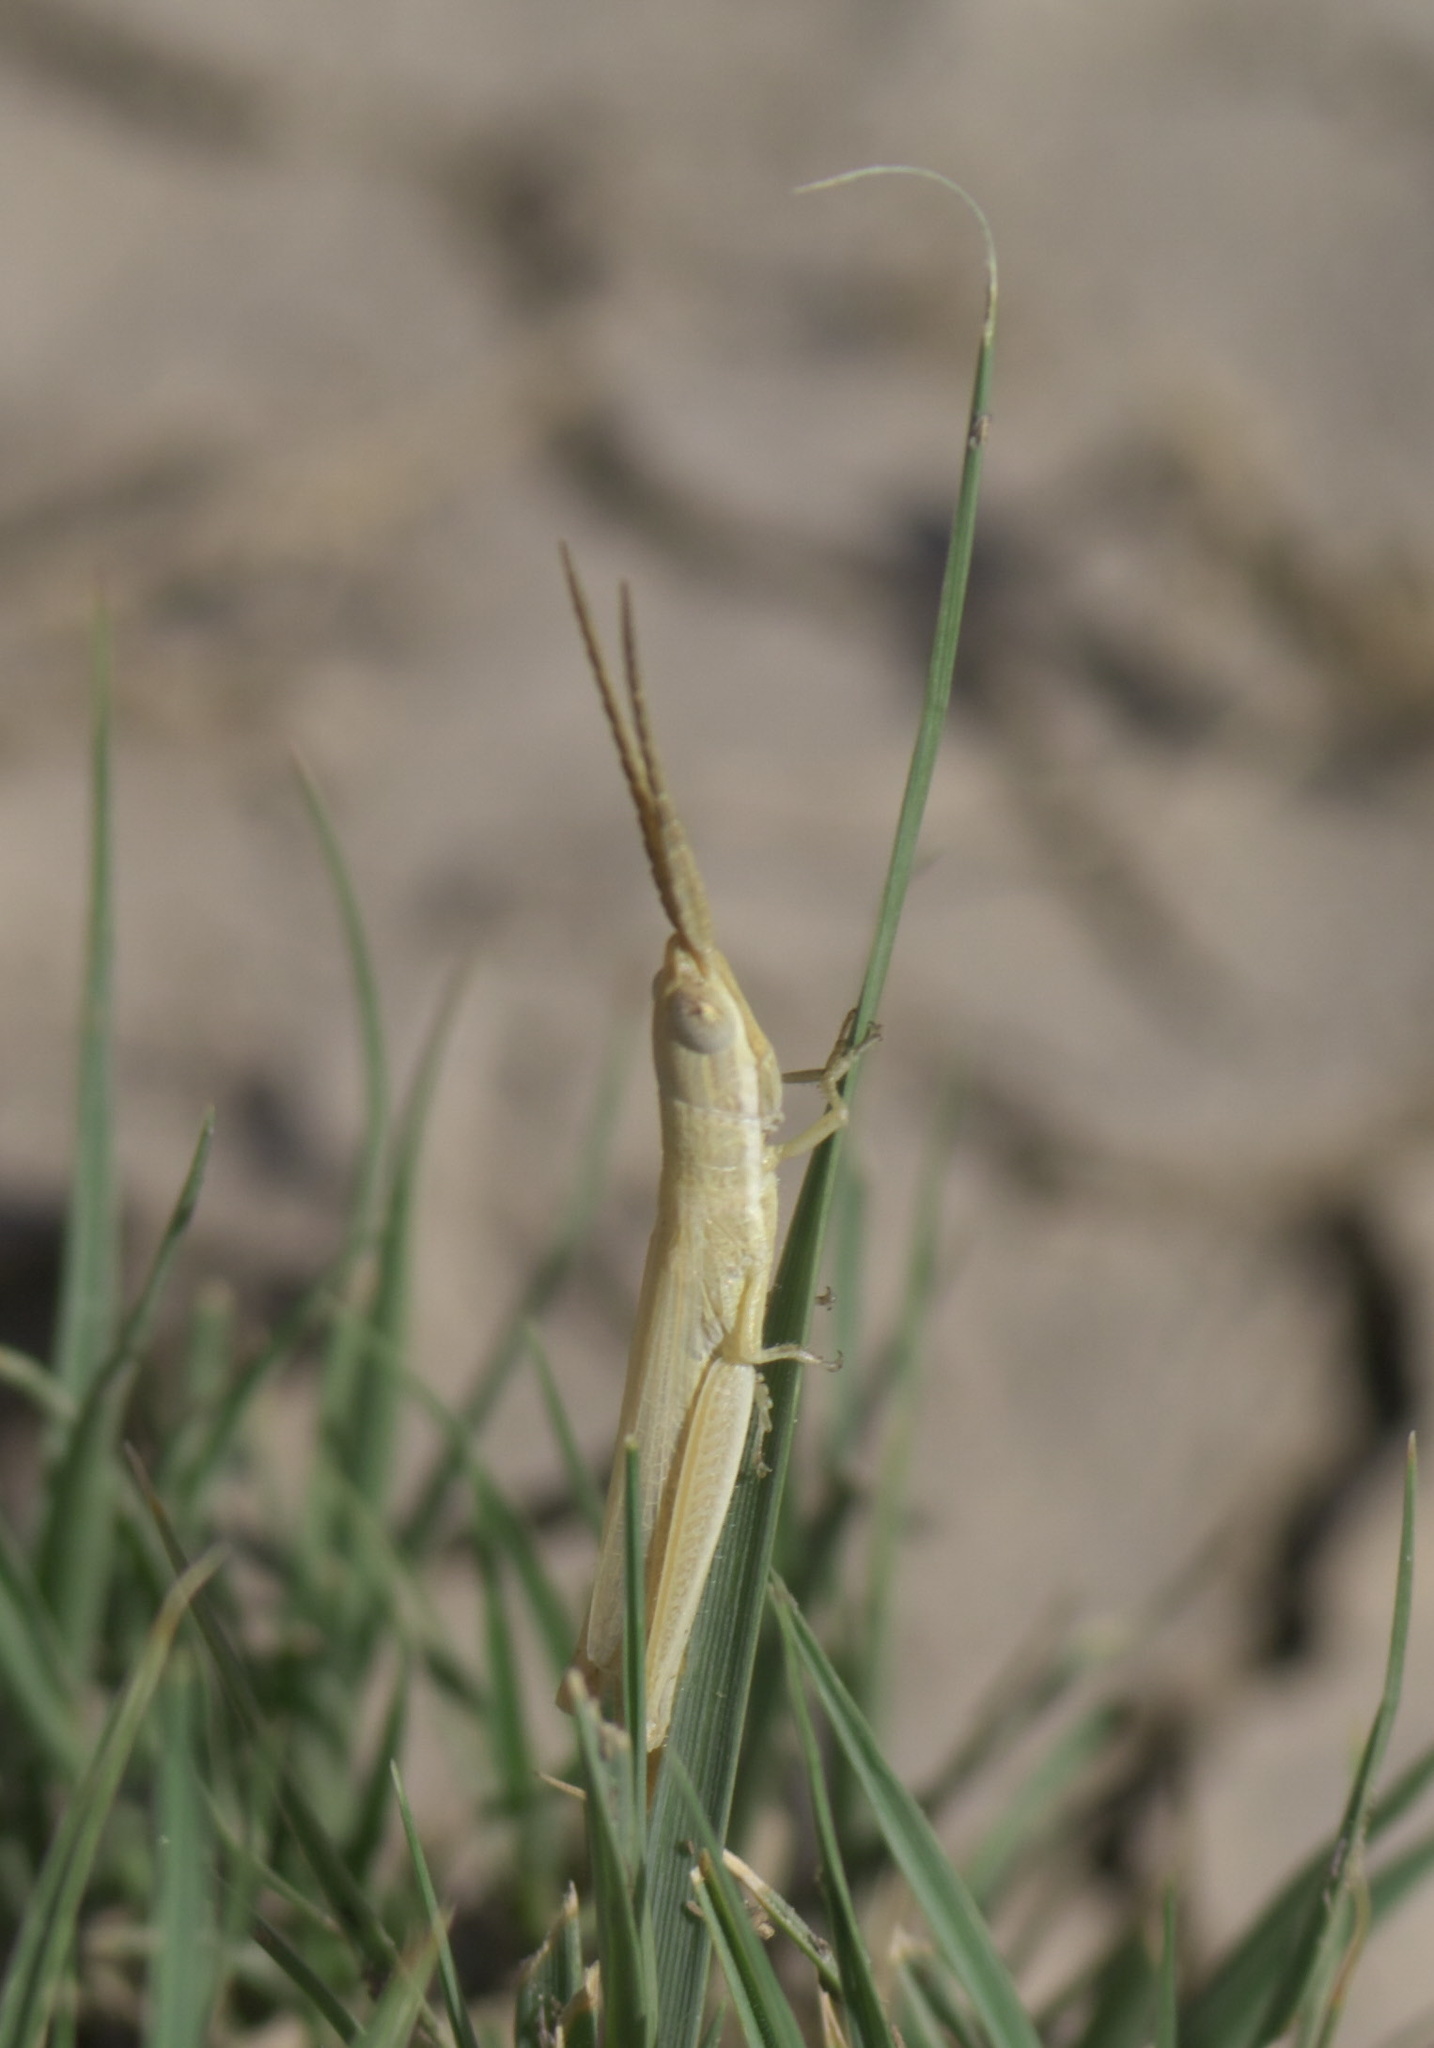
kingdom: Animalia
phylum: Arthropoda
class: Insecta
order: Orthoptera
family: Acrididae
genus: Paropomala
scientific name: Paropomala wyomingensis
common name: Wyoming toothpick grasshopper
